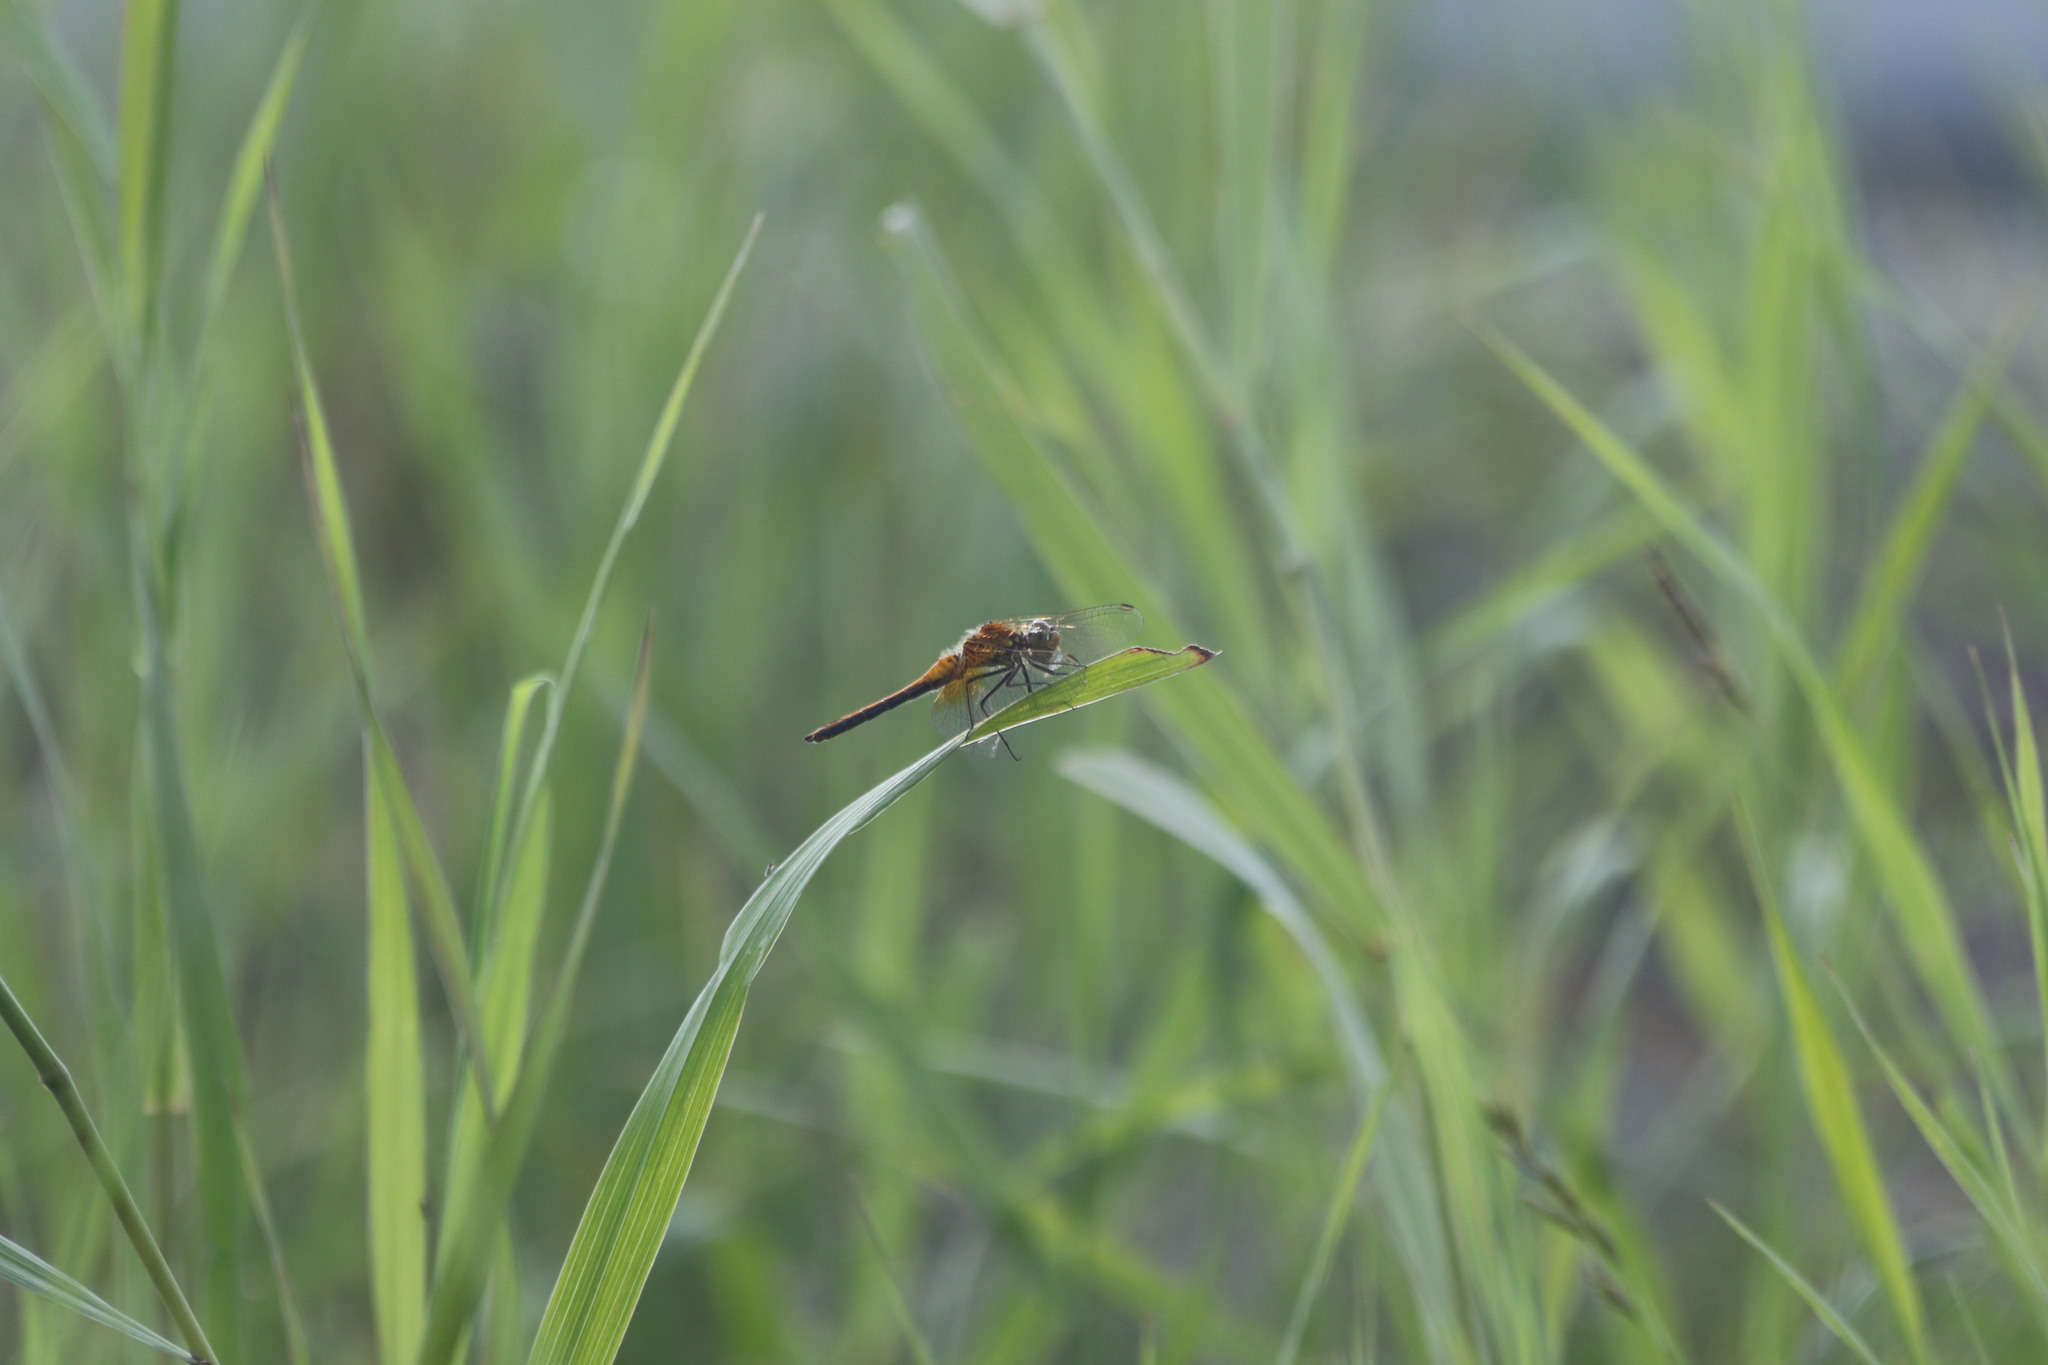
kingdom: Animalia
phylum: Arthropoda
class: Insecta
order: Odonata
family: Libellulidae
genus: Sympetrum
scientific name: Sympetrum flaveolum
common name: Yellow-winged darter
